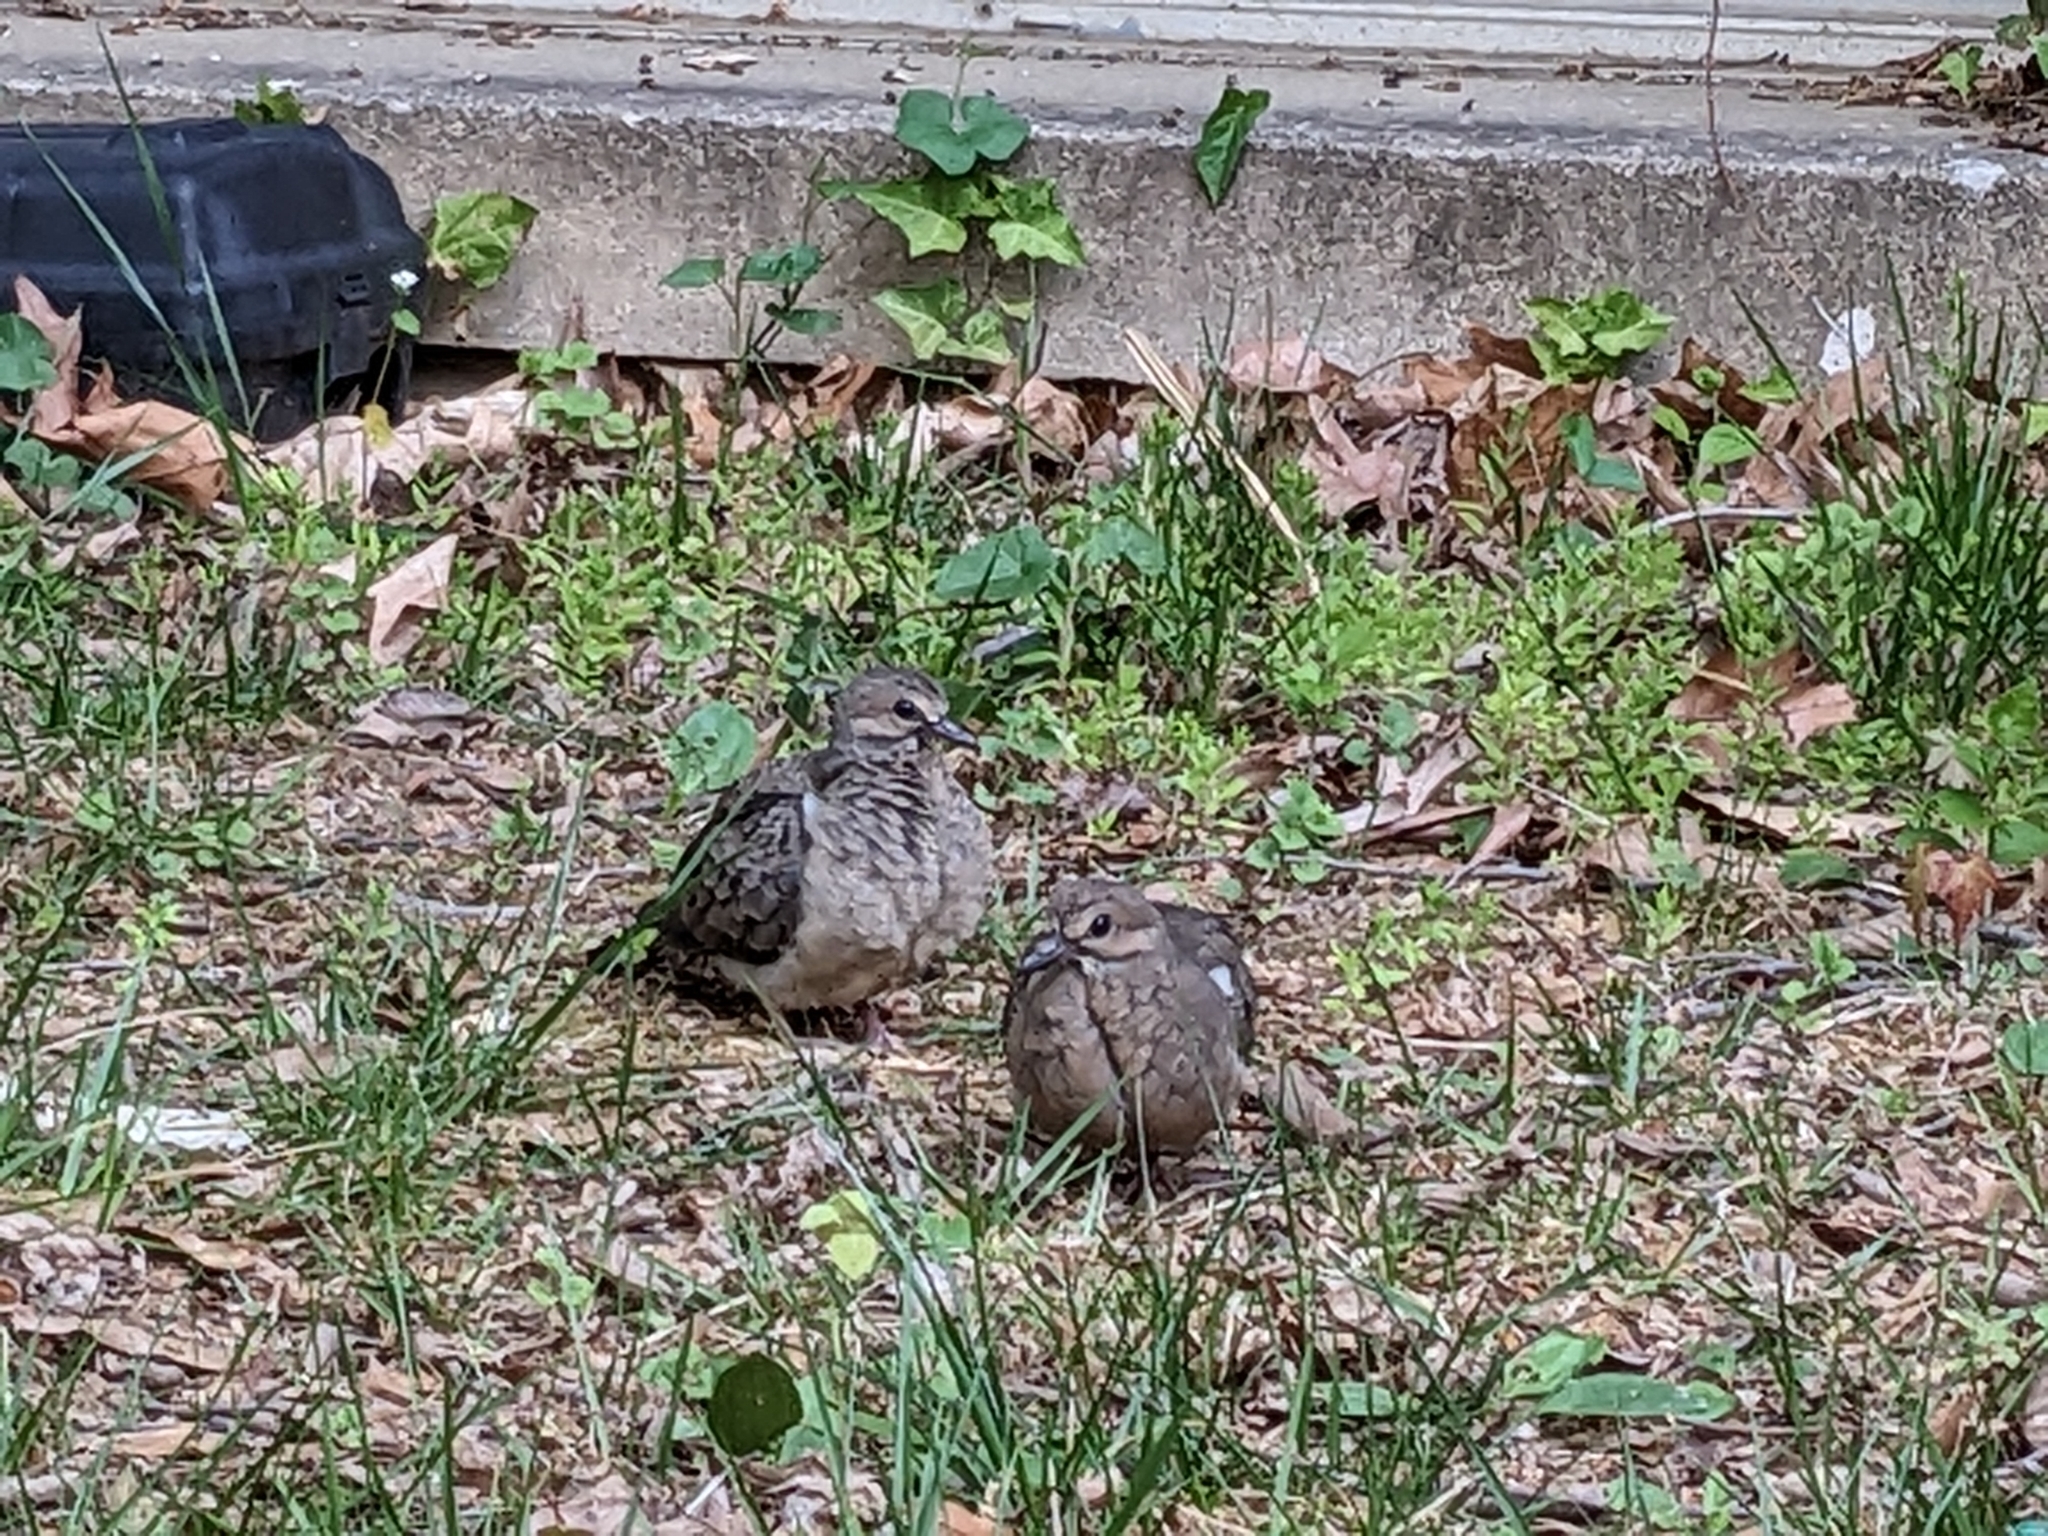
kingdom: Animalia
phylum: Chordata
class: Aves
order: Columbiformes
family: Columbidae
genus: Zenaida
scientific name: Zenaida macroura
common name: Mourning dove
